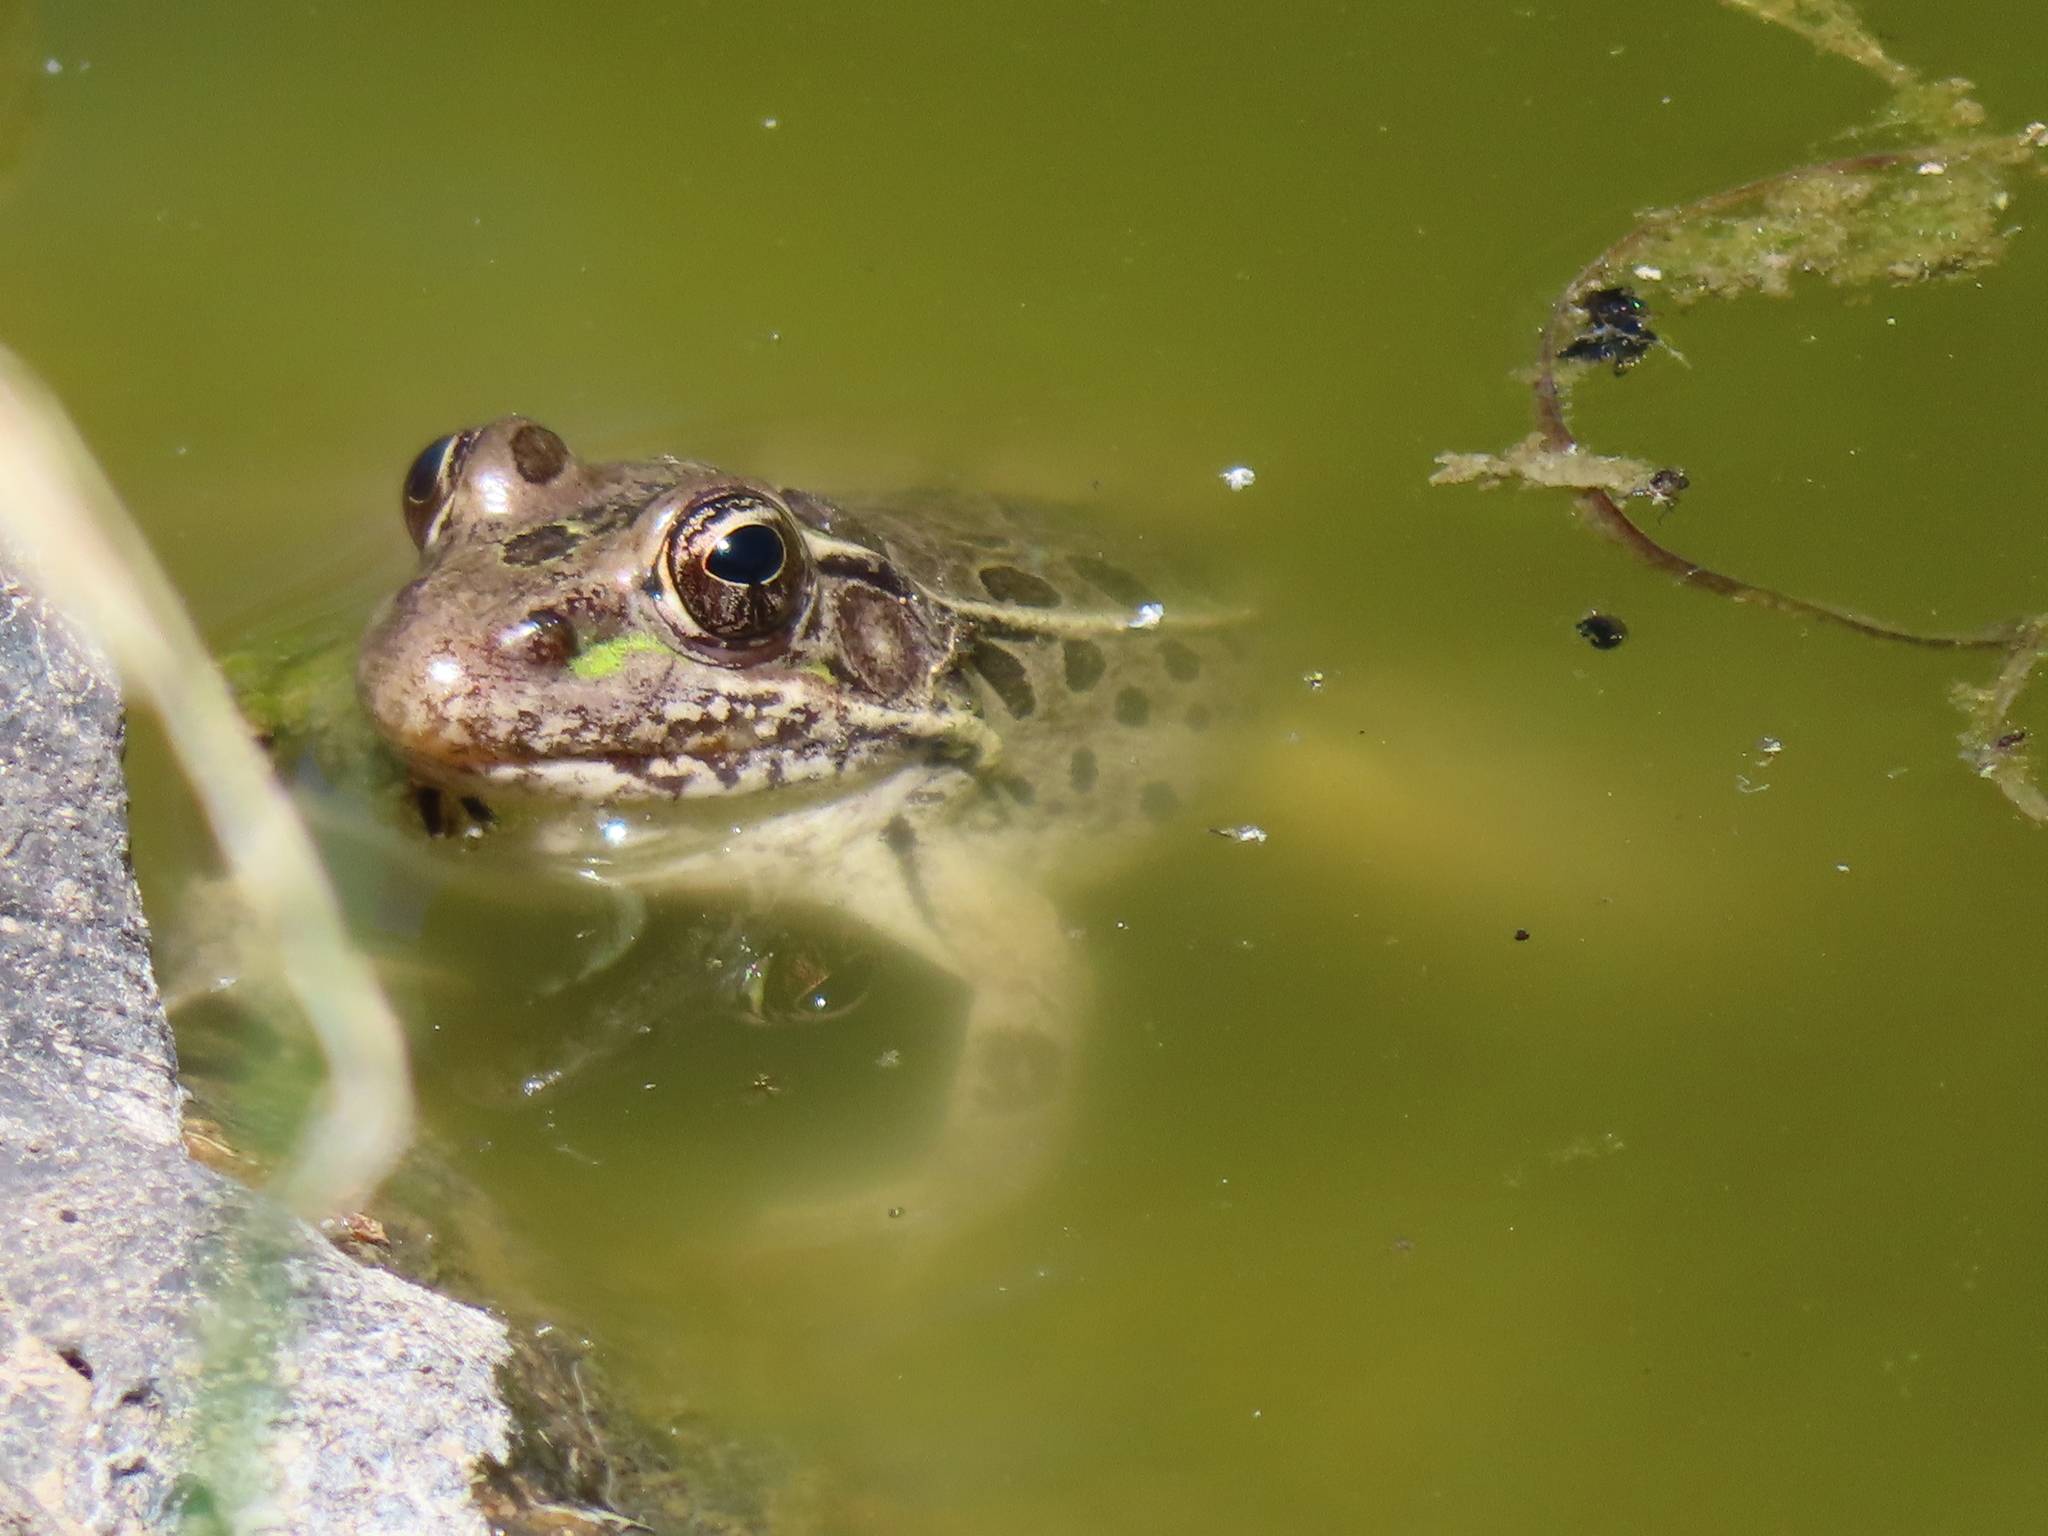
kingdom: Animalia
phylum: Chordata
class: Amphibia
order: Anura
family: Ranidae
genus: Lithobates
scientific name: Lithobates berlandieri
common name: Rio grande leopard frog
